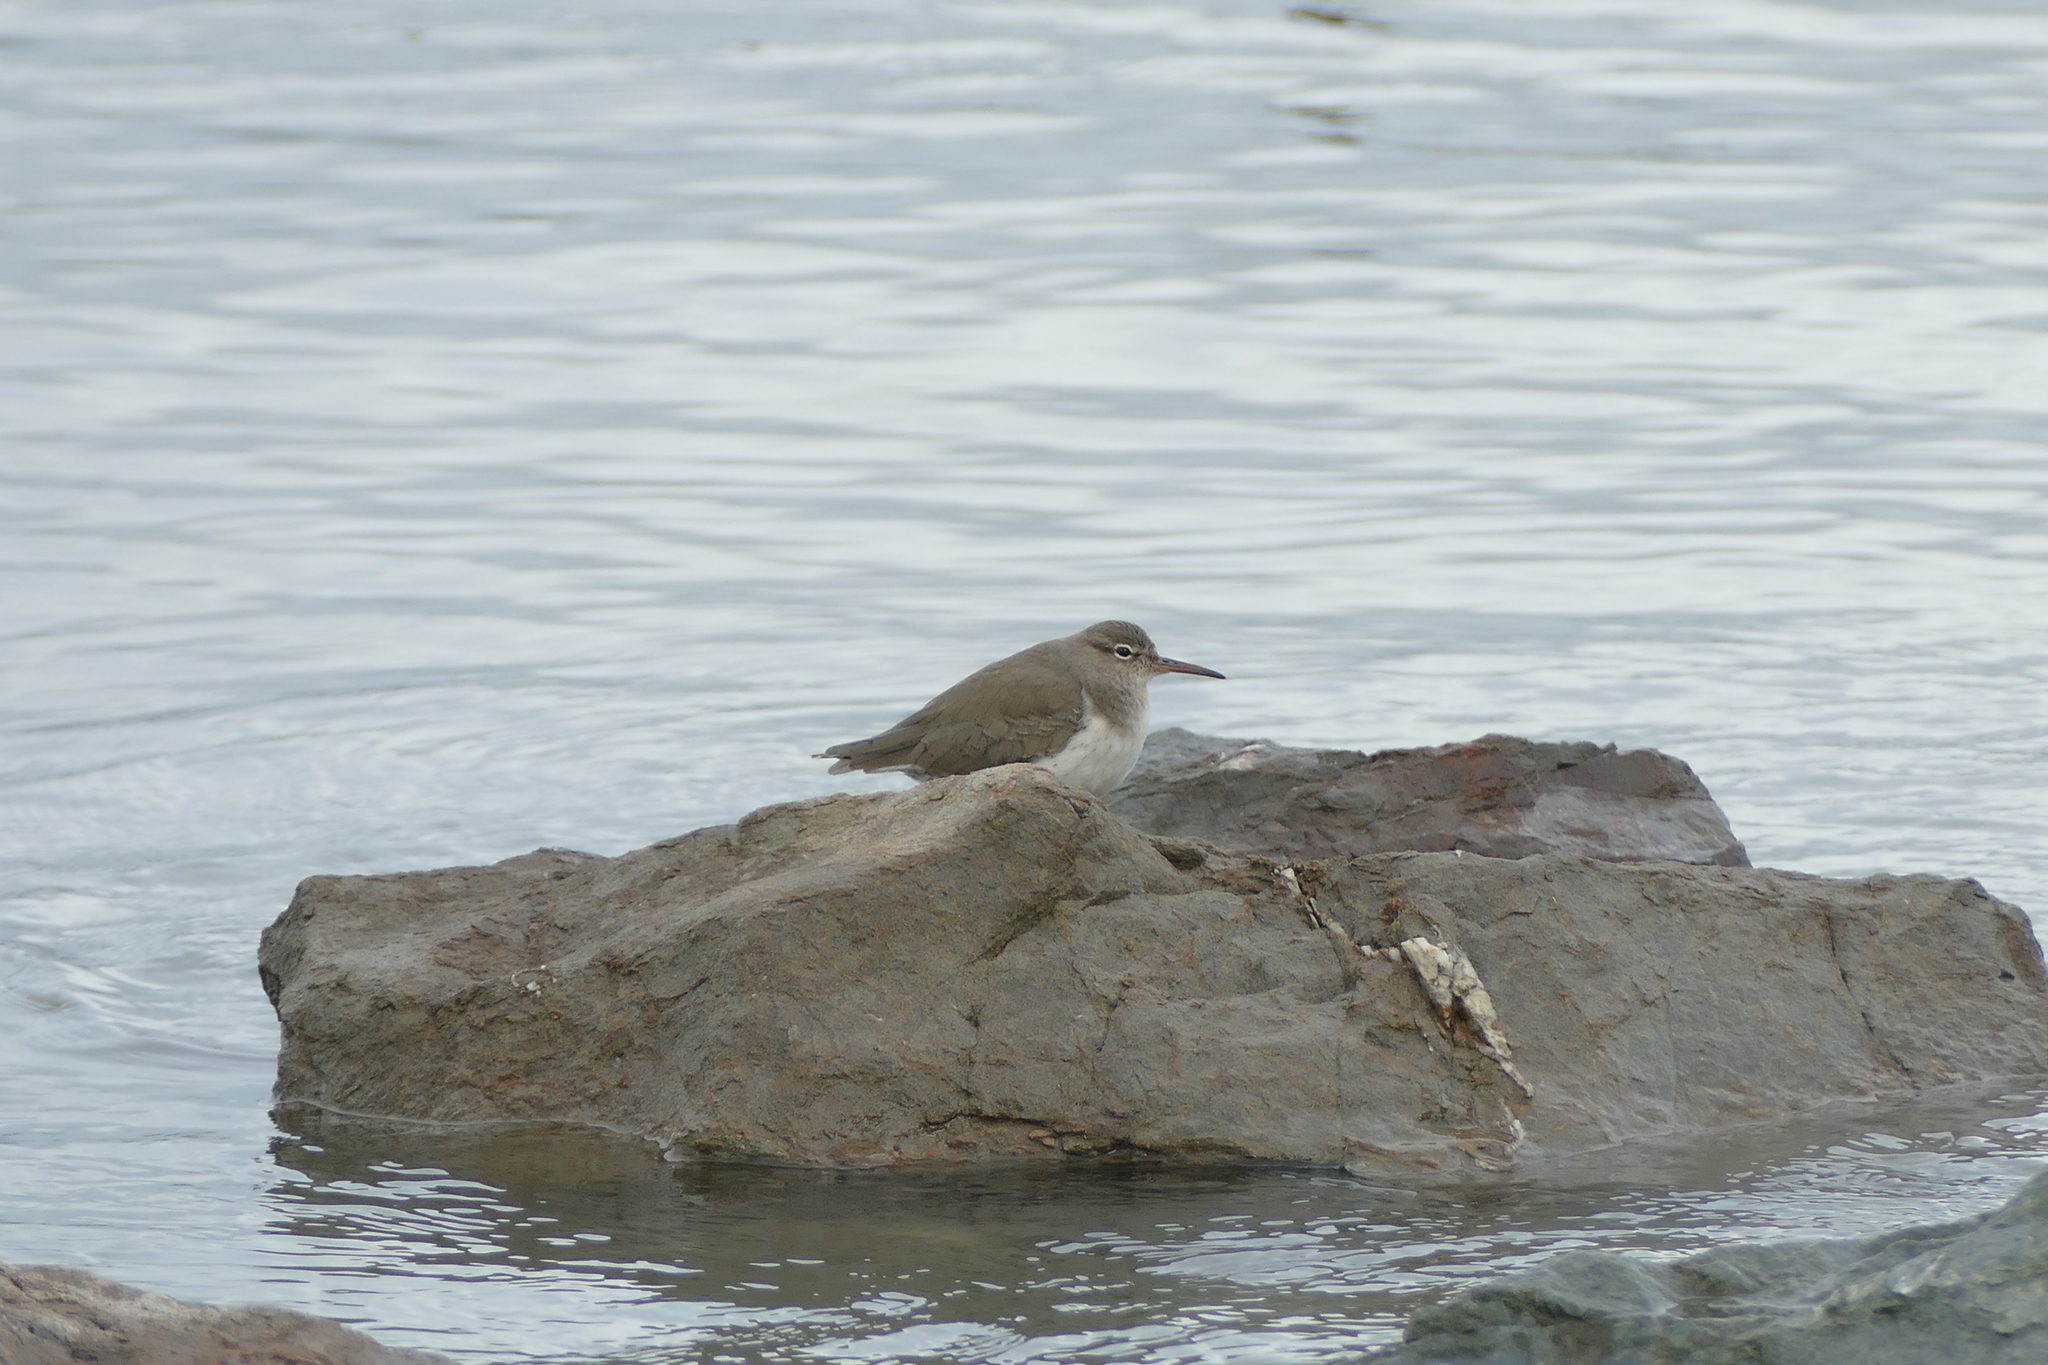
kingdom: Animalia
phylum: Chordata
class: Aves
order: Charadriiformes
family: Scolopacidae
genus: Actitis
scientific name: Actitis macularius
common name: Spotted sandpiper
